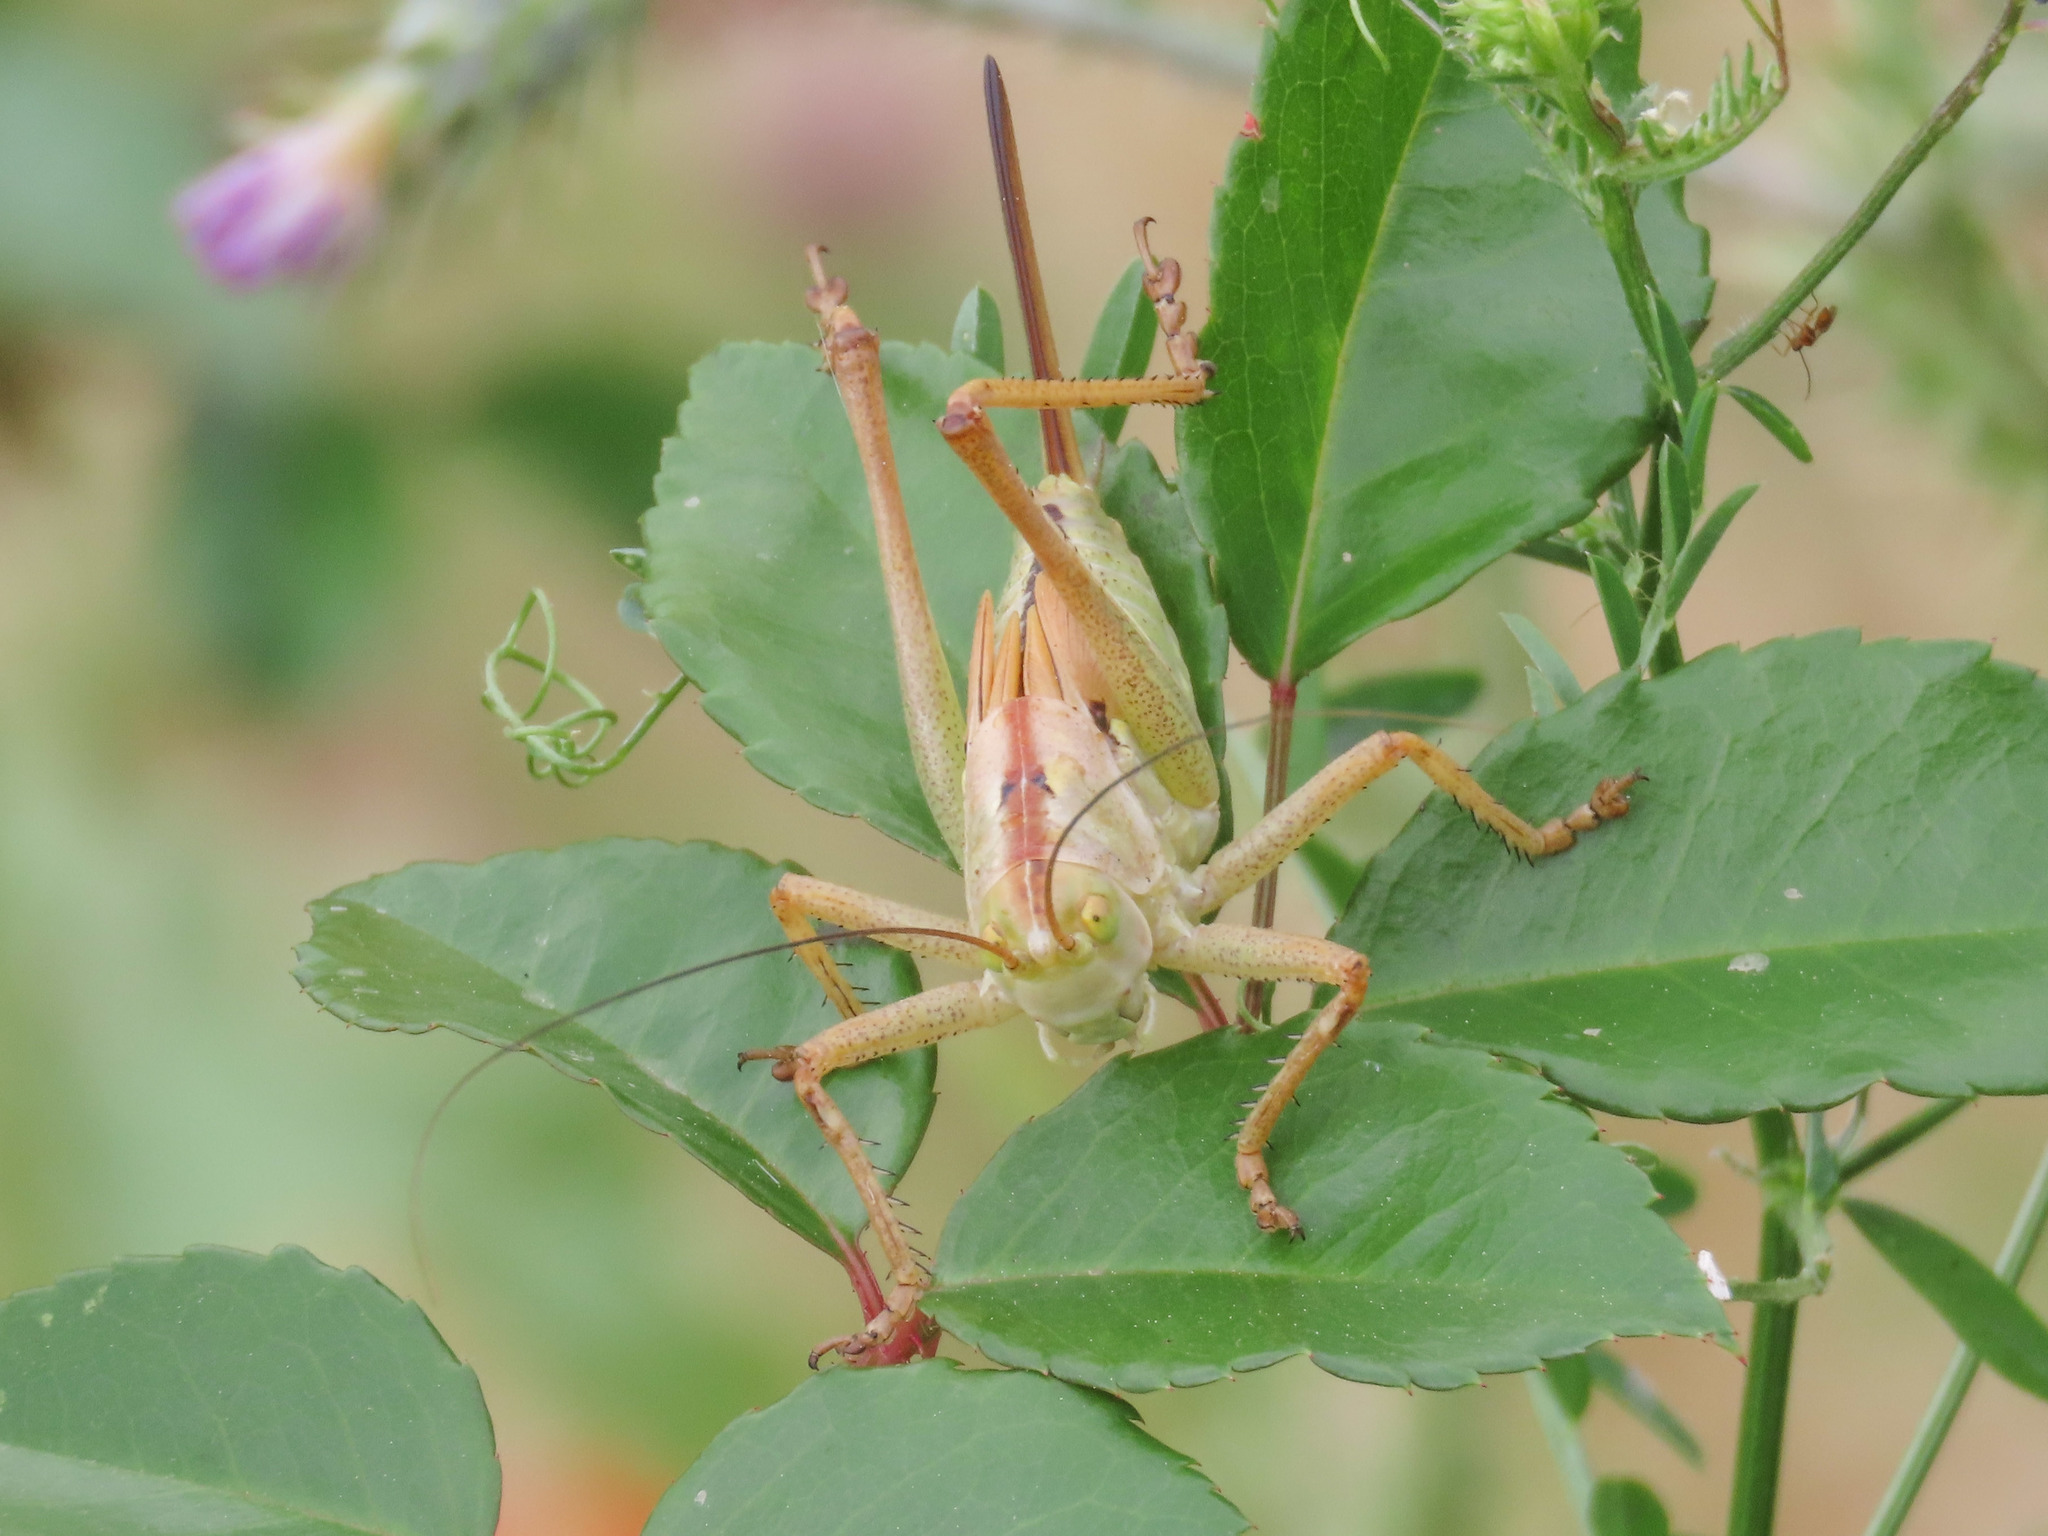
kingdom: Animalia
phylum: Arthropoda
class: Insecta
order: Orthoptera
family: Tettigoniidae
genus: Tettigonia
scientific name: Tettigonia viridissima
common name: Great green bush-cricket
